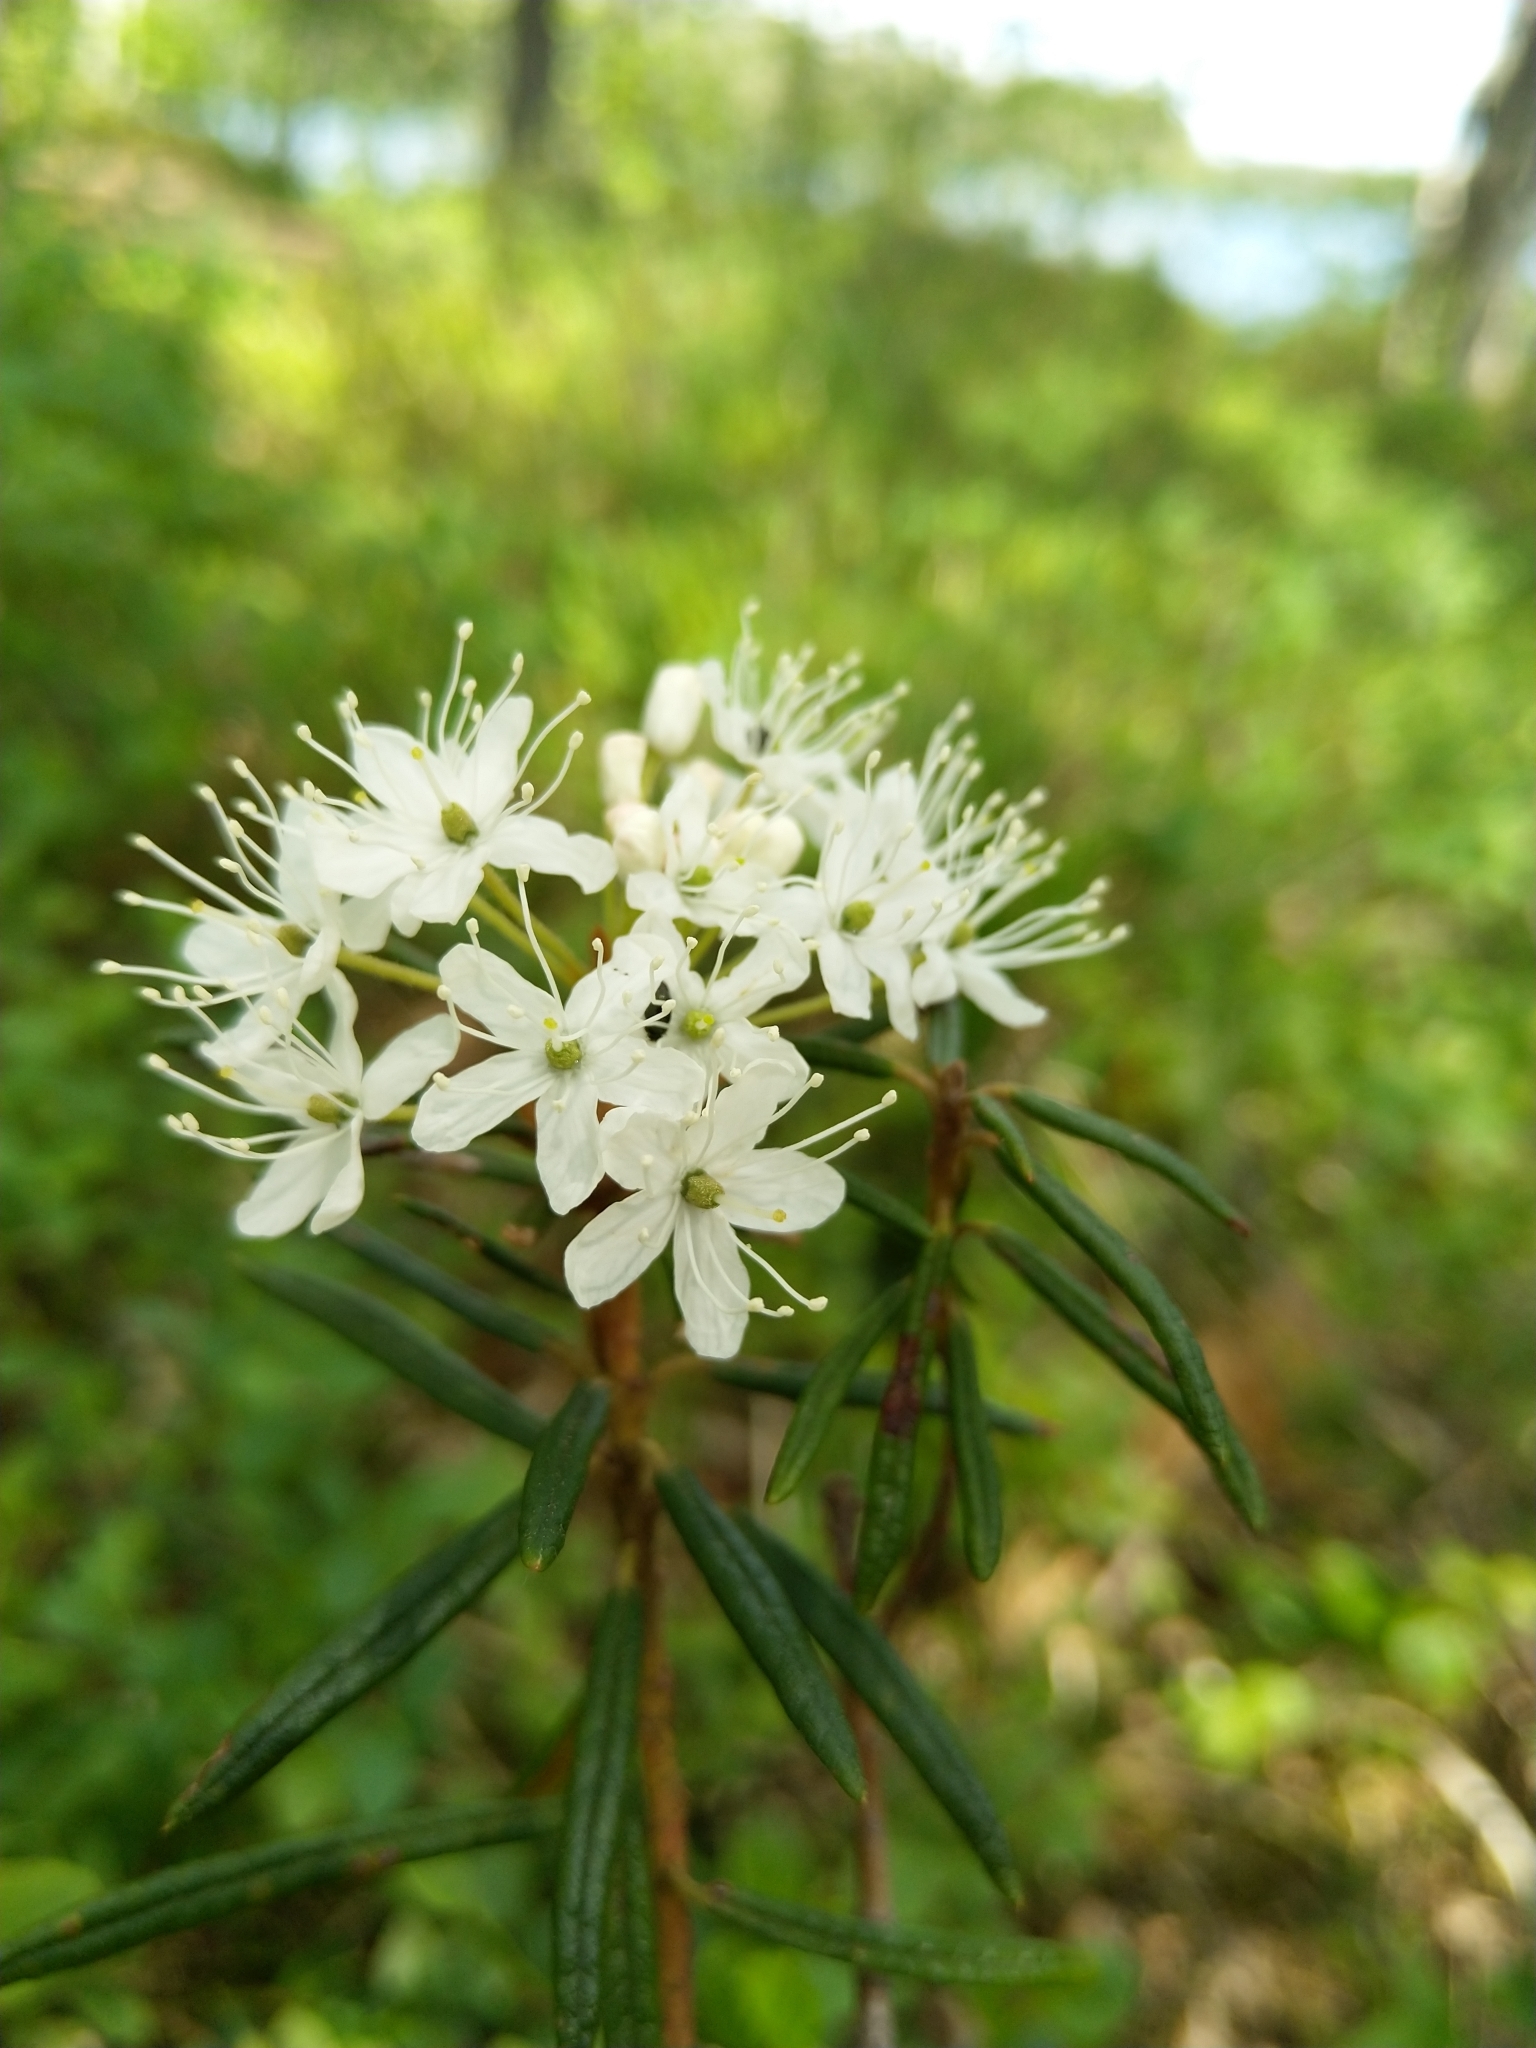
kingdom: Plantae
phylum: Tracheophyta
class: Magnoliopsida
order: Ericales
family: Ericaceae
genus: Rhododendron
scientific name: Rhododendron tomentosum
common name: Marsh labrador tea
